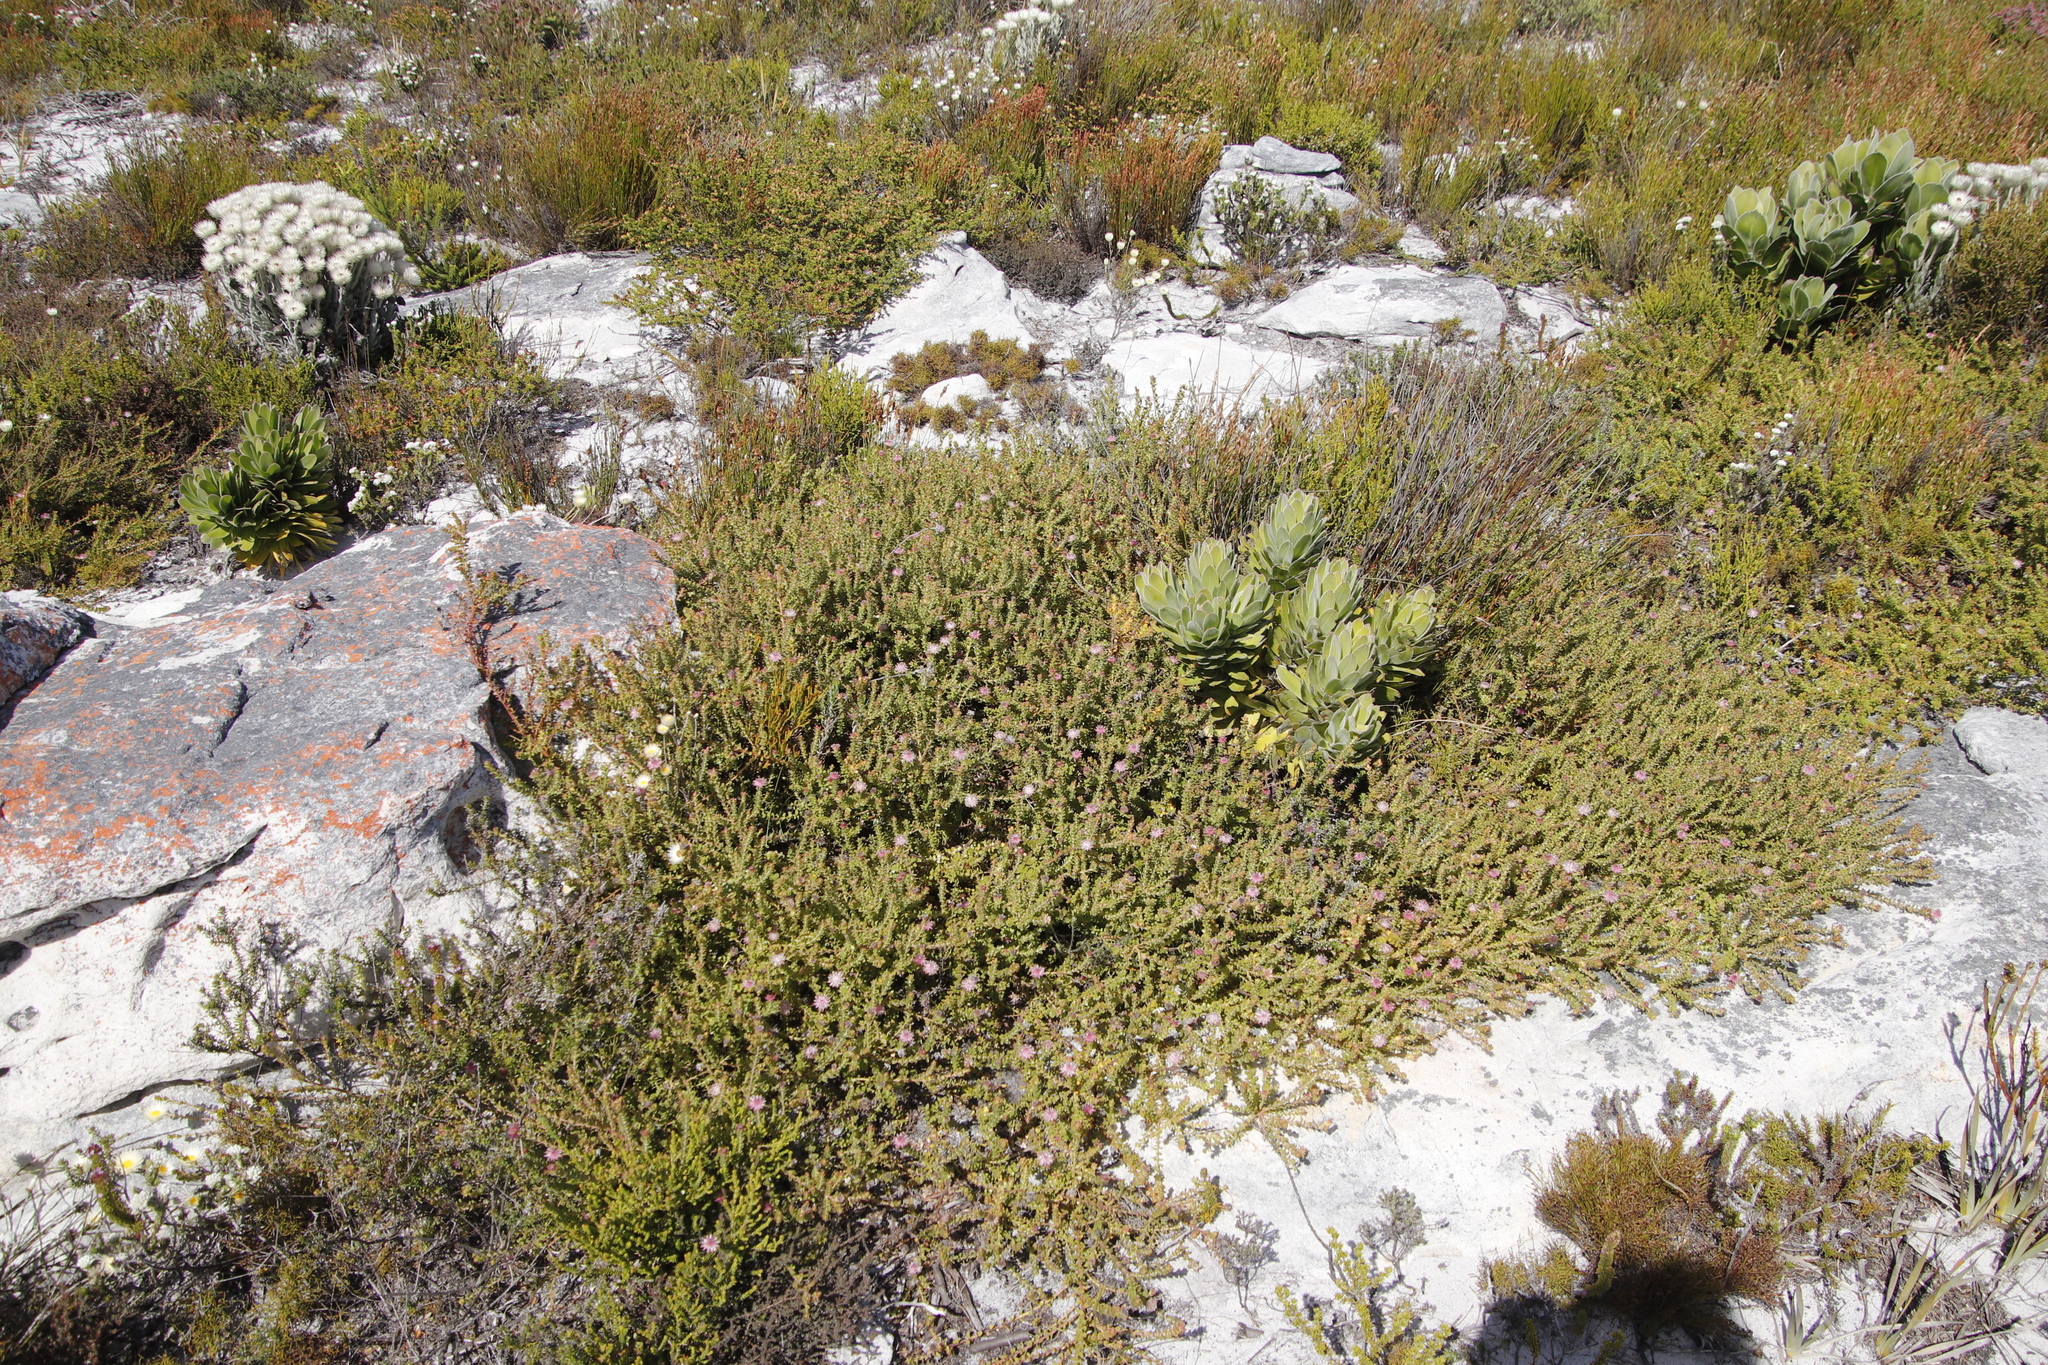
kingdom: Plantae
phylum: Tracheophyta
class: Magnoliopsida
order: Proteales
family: Proteaceae
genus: Diastella
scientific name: Diastella divaricata
